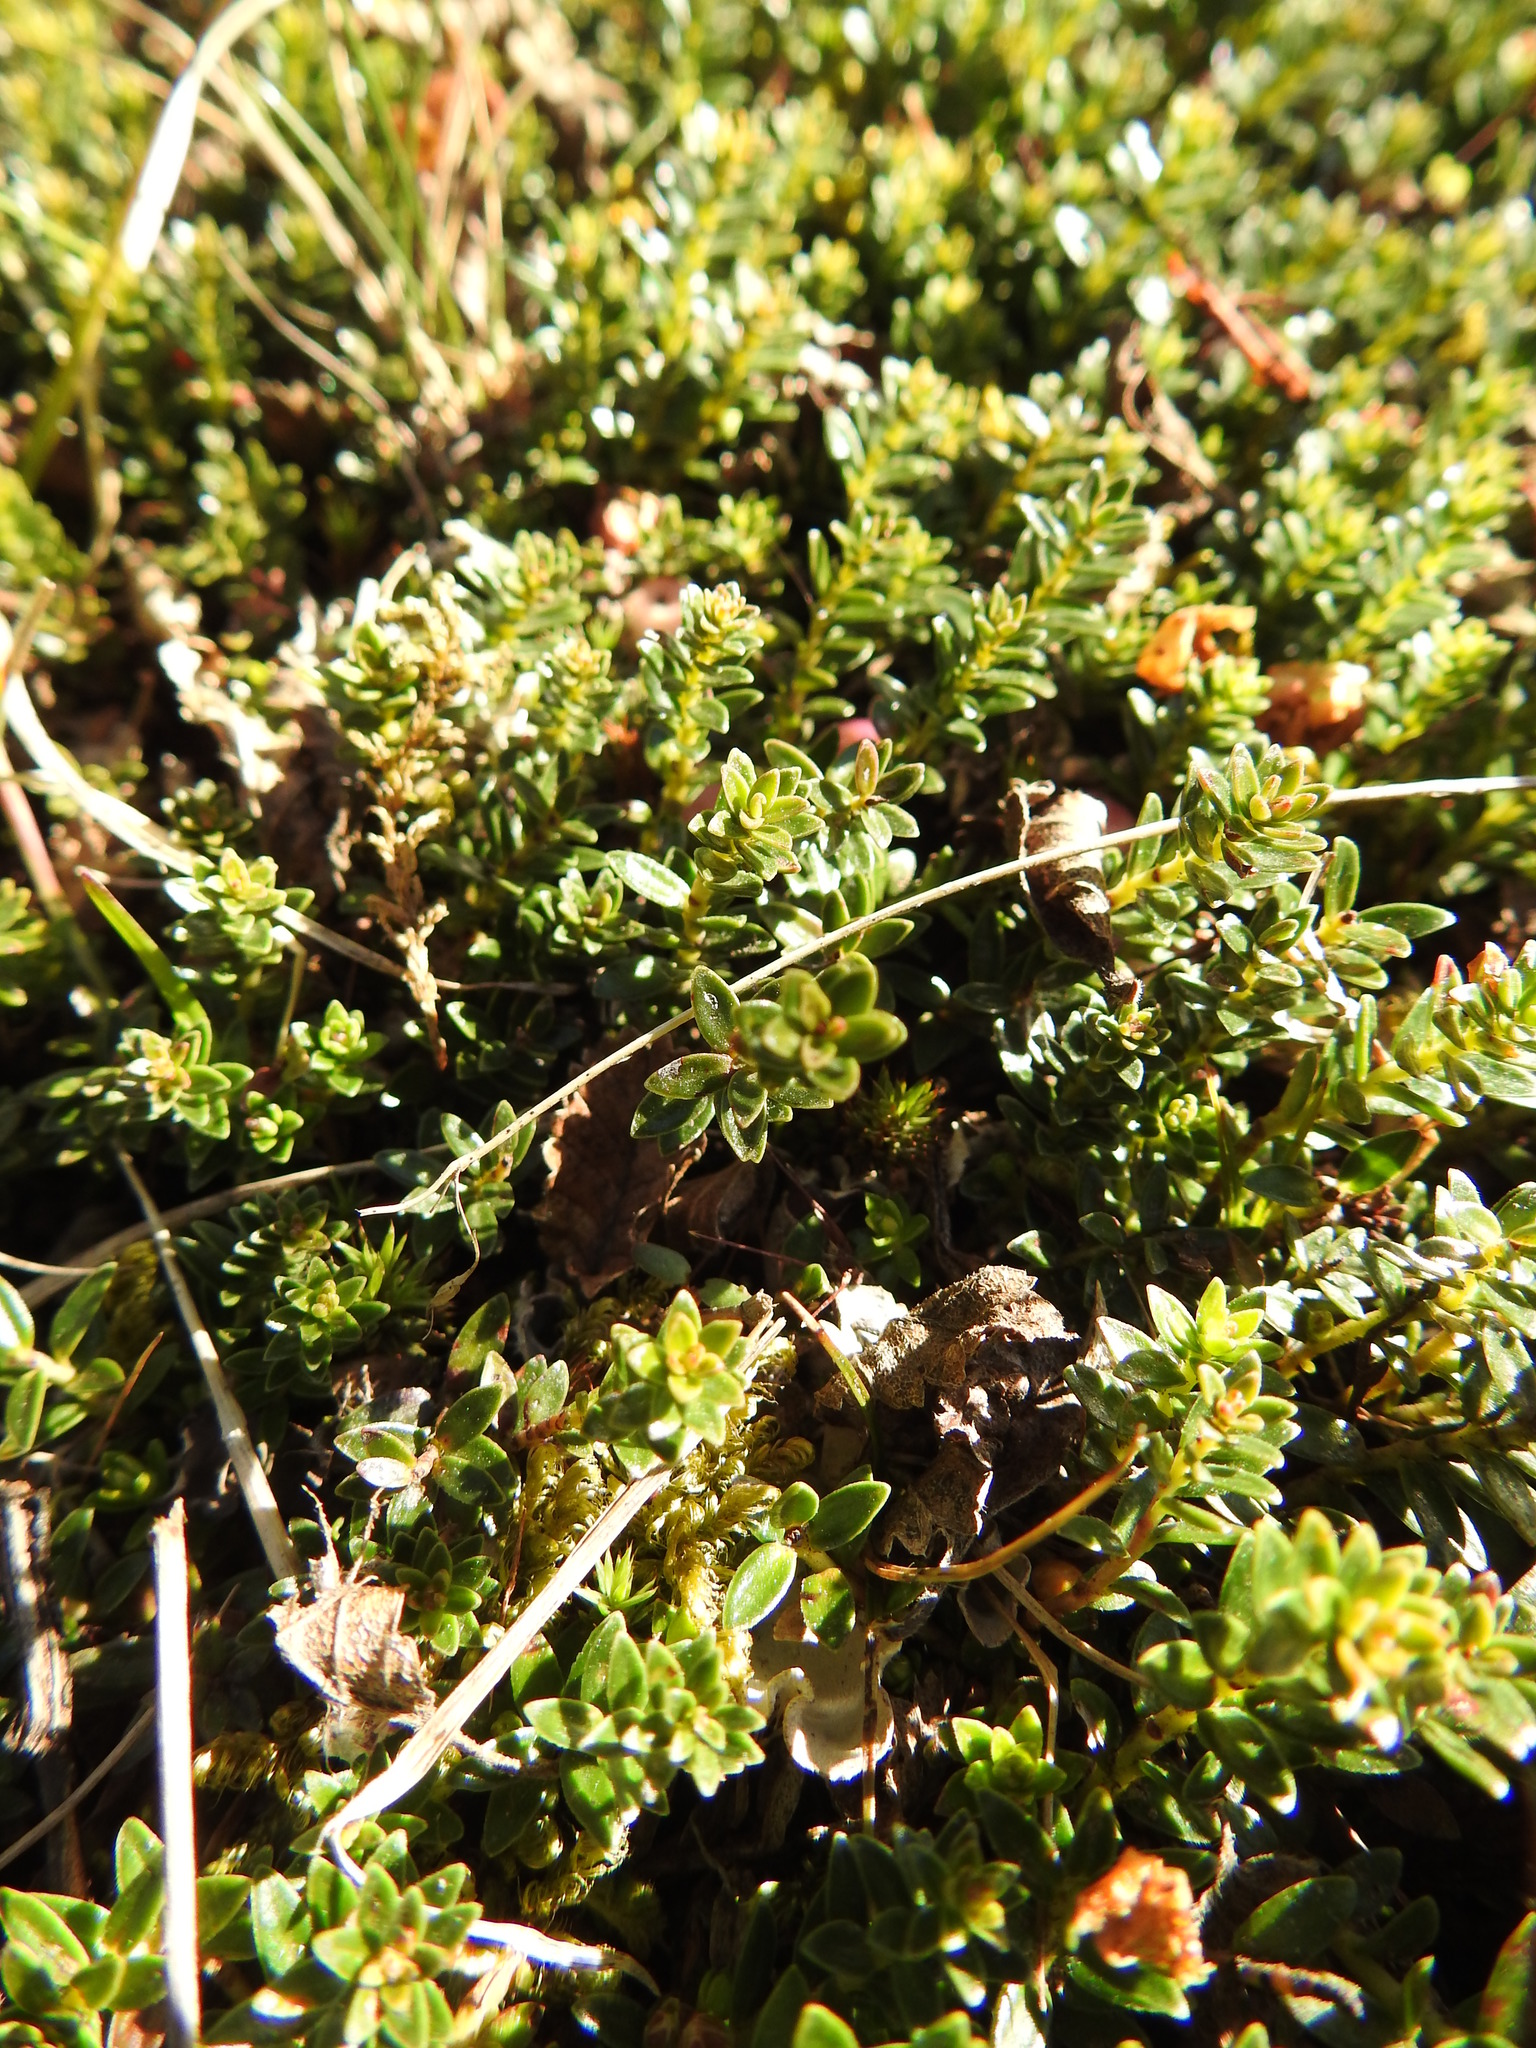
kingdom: Plantae
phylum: Tracheophyta
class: Magnoliopsida
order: Ericales
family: Ericaceae
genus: Gaultheria
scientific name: Gaultheria pumila
